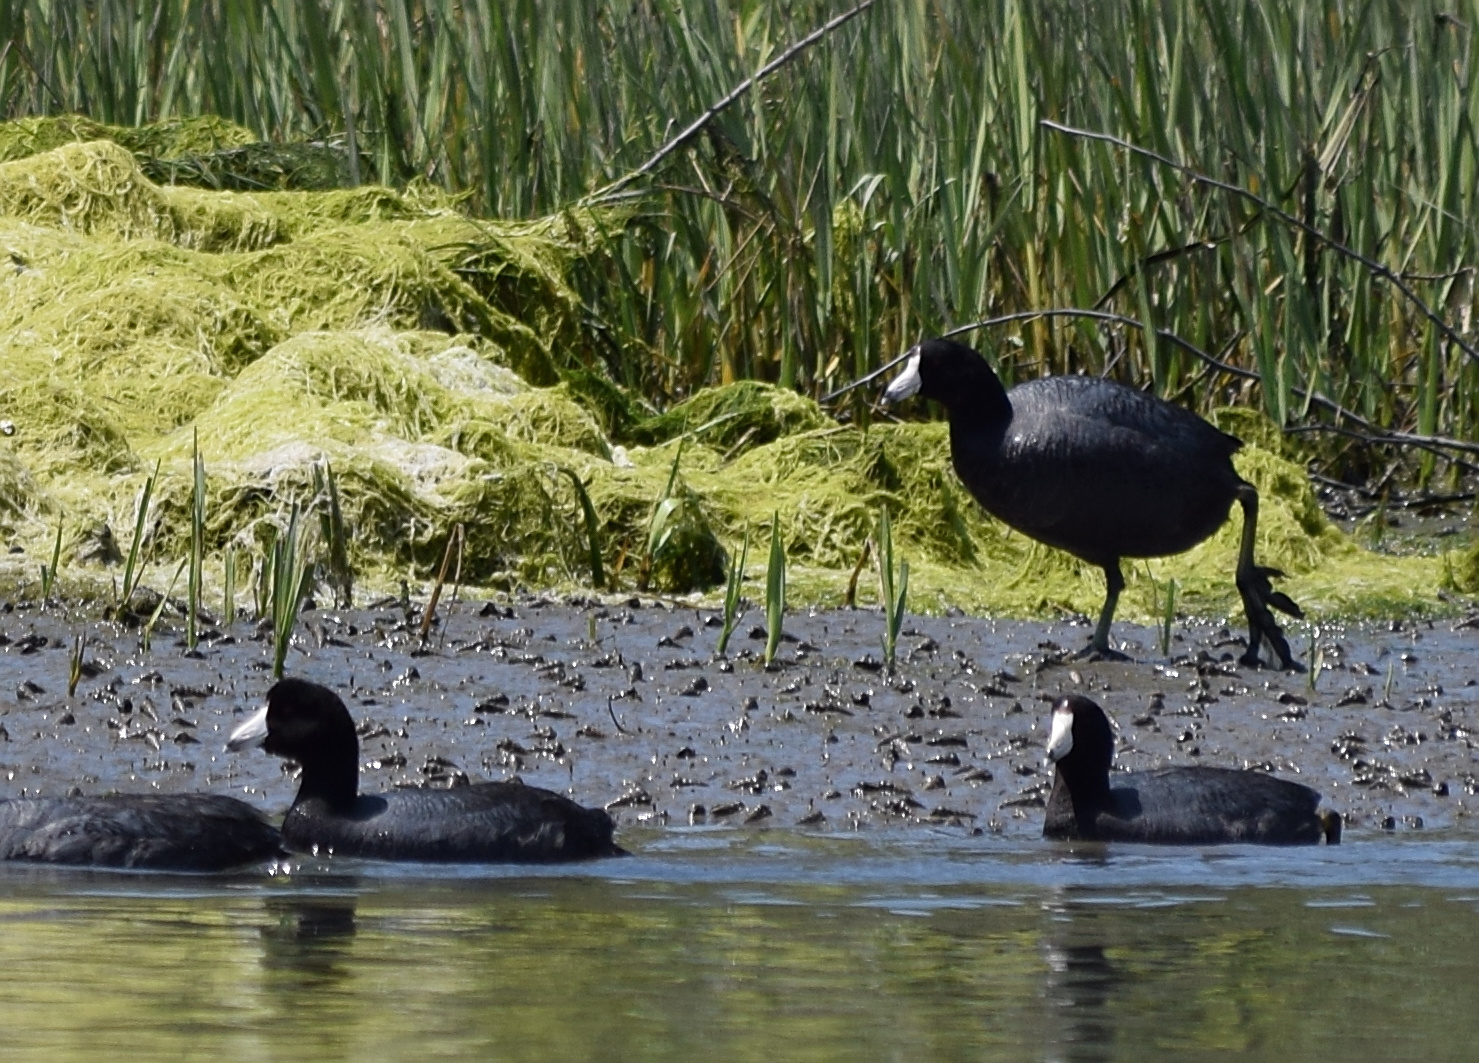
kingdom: Animalia
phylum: Chordata
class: Aves
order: Gruiformes
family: Rallidae
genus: Fulica
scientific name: Fulica americana
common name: American coot
